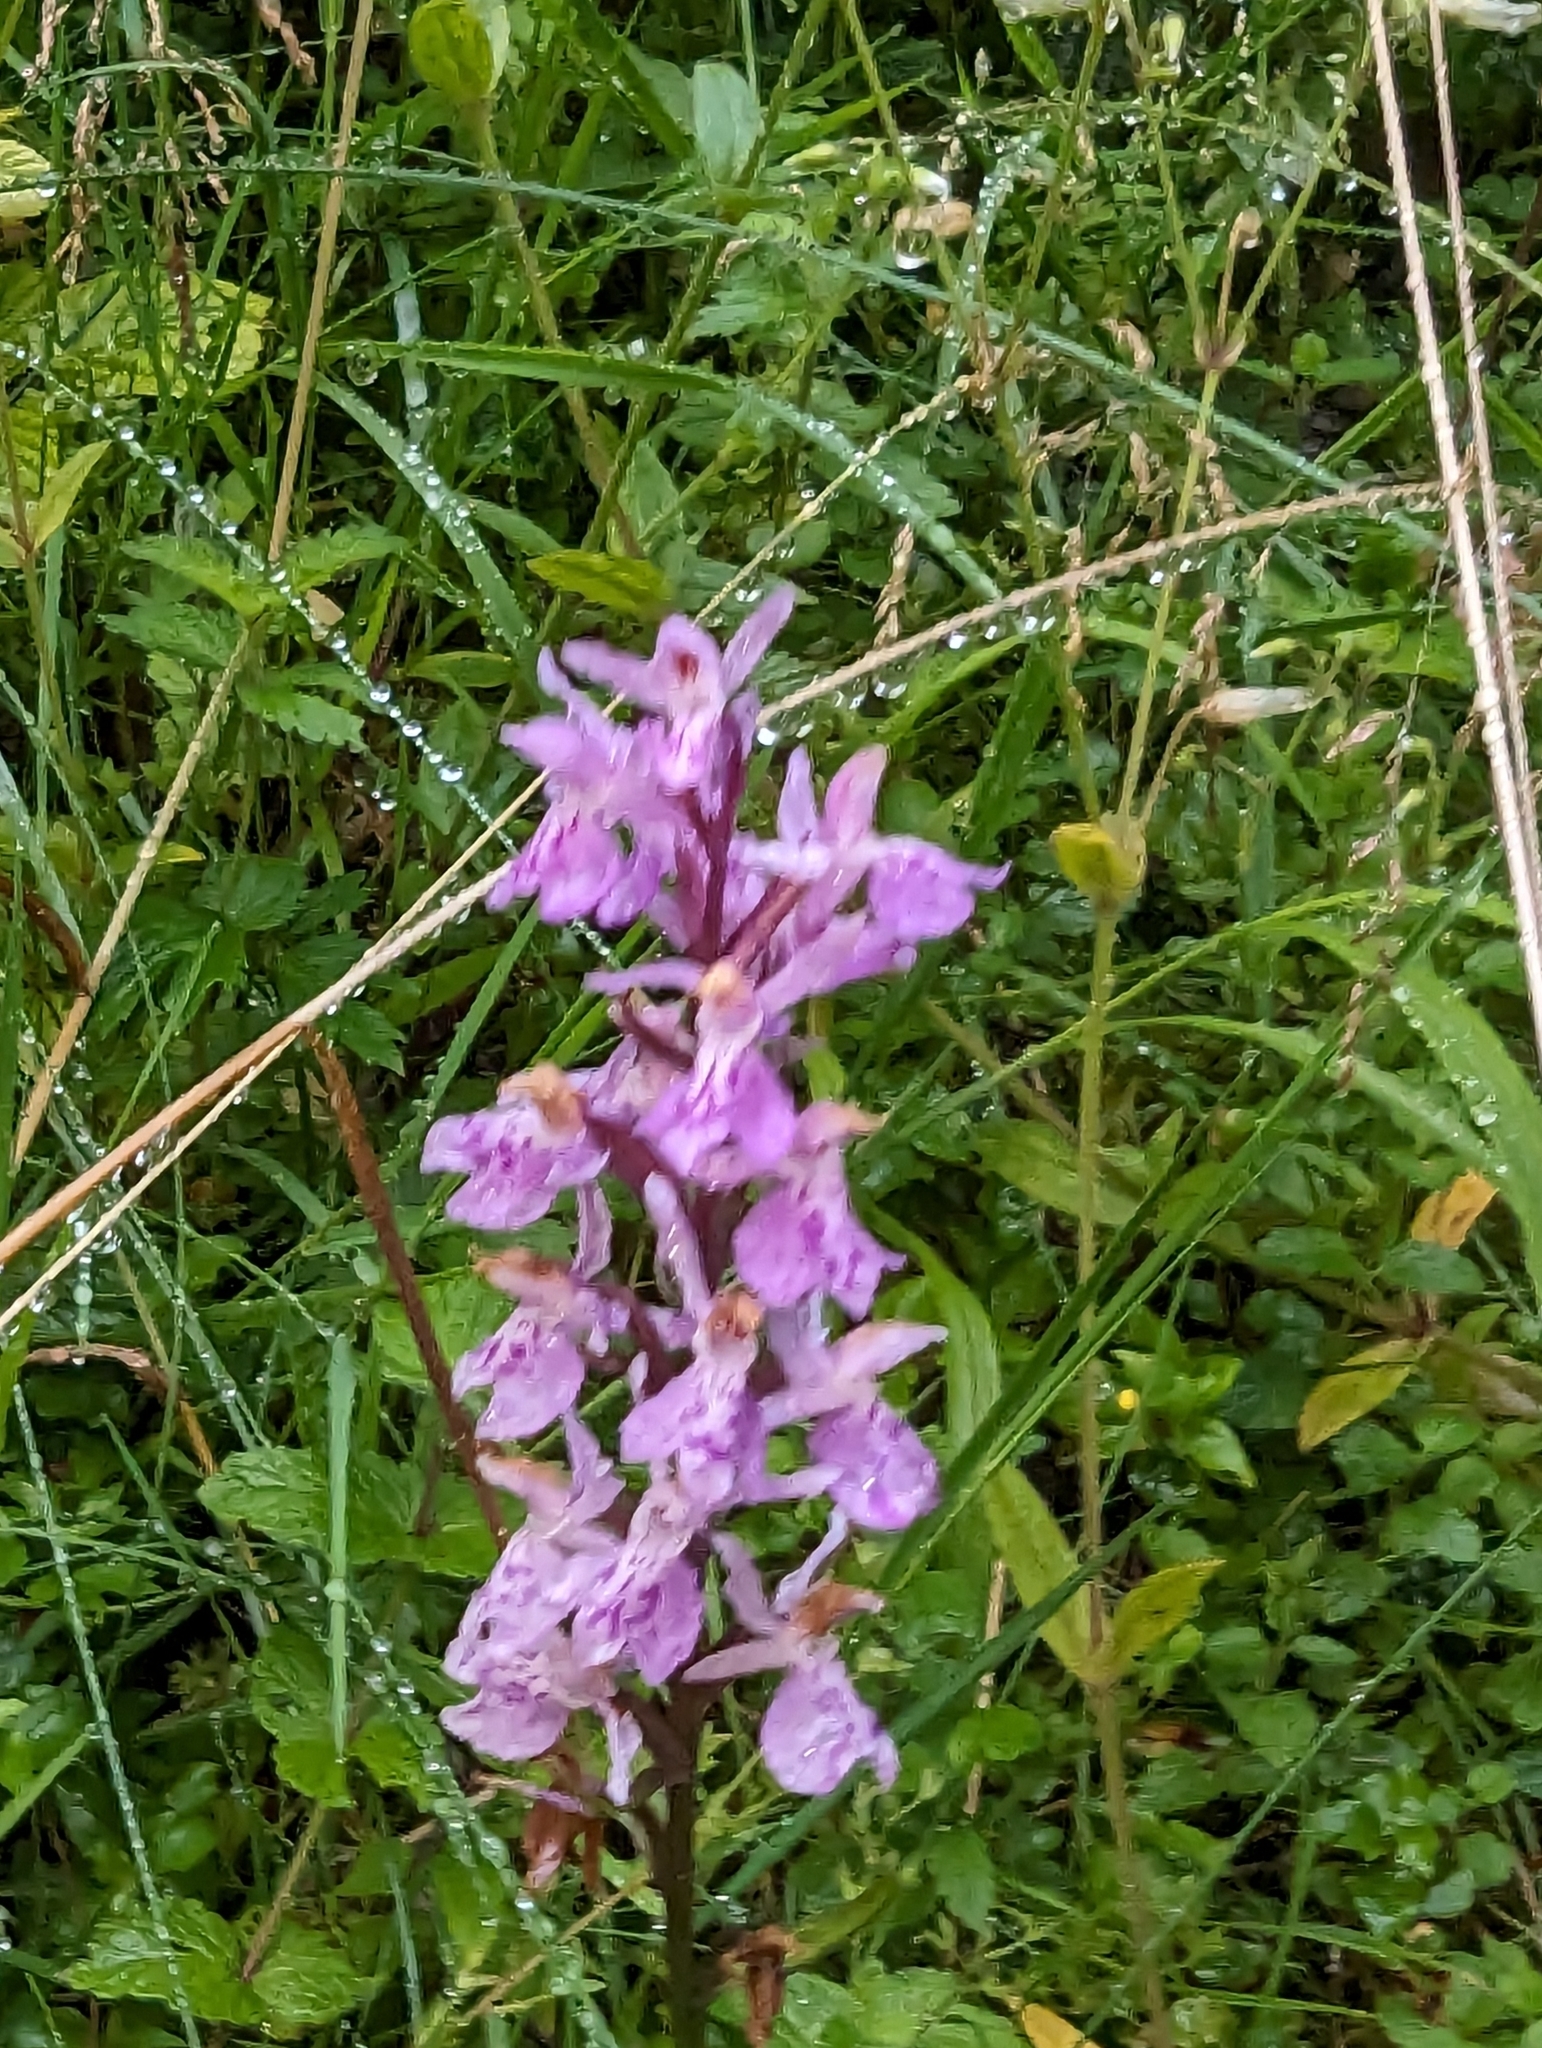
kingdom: Plantae
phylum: Tracheophyta
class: Liliopsida
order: Asparagales
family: Orchidaceae
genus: Dactylorhiza
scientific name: Dactylorhiza maculata
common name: Heath spotted-orchid
